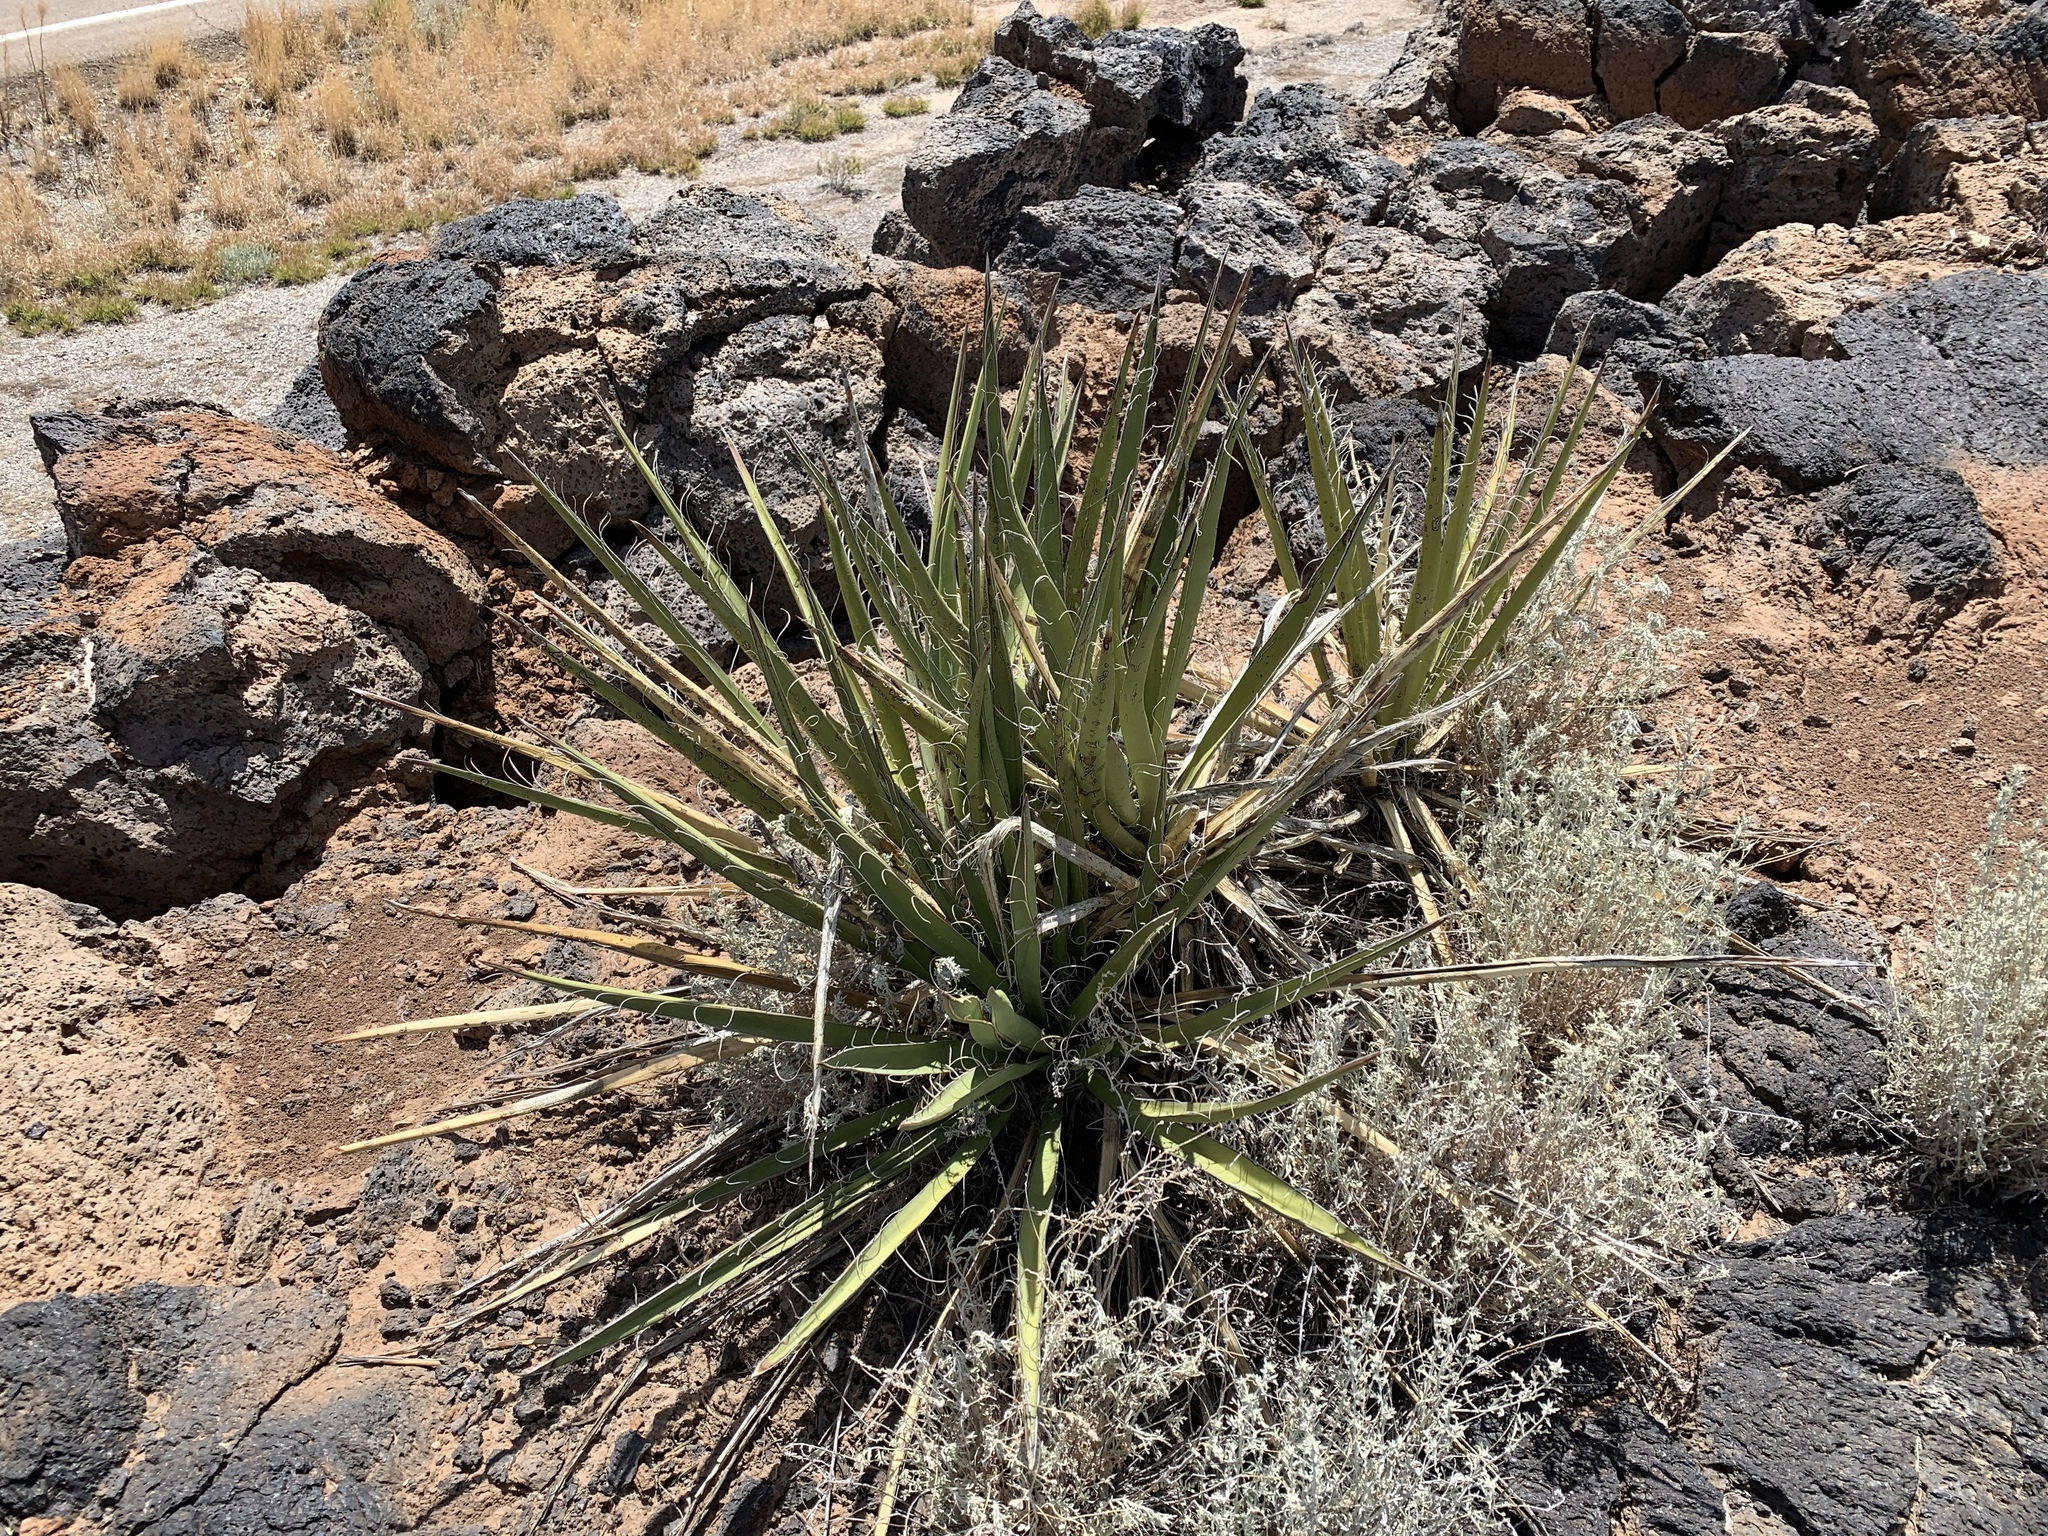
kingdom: Plantae
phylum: Tracheophyta
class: Liliopsida
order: Asparagales
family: Asparagaceae
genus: Yucca
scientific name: Yucca baccata
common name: Banana yucca
